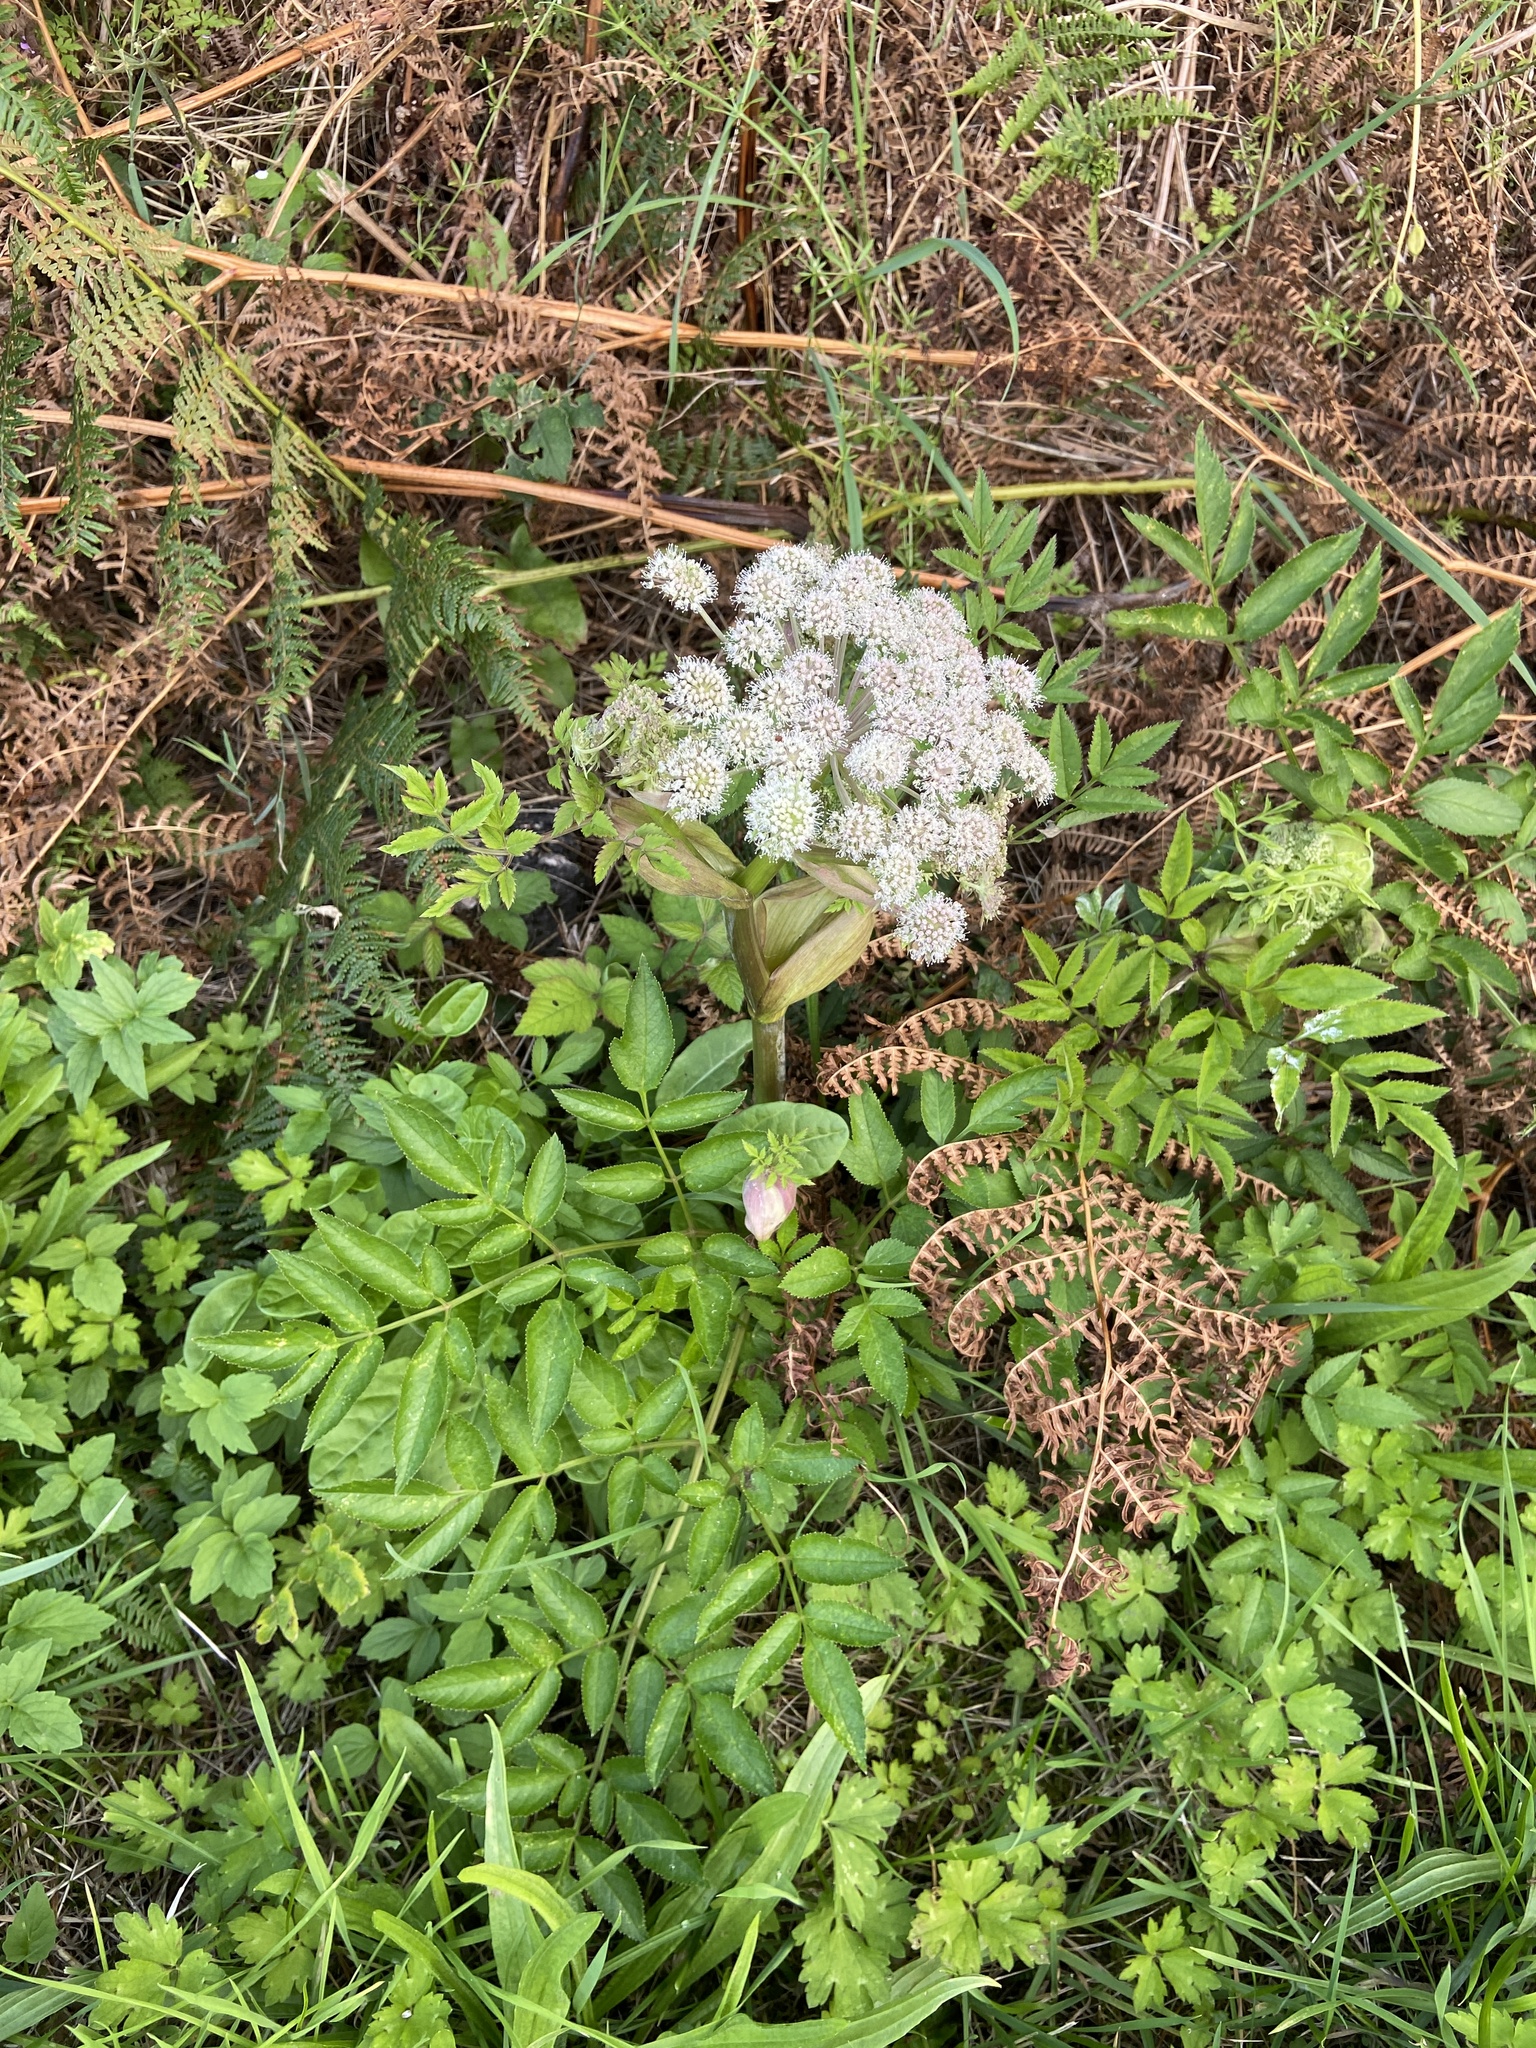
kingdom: Plantae
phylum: Tracheophyta
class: Magnoliopsida
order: Apiales
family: Apiaceae
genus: Angelica
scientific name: Angelica sylvestris
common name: Wild angelica
